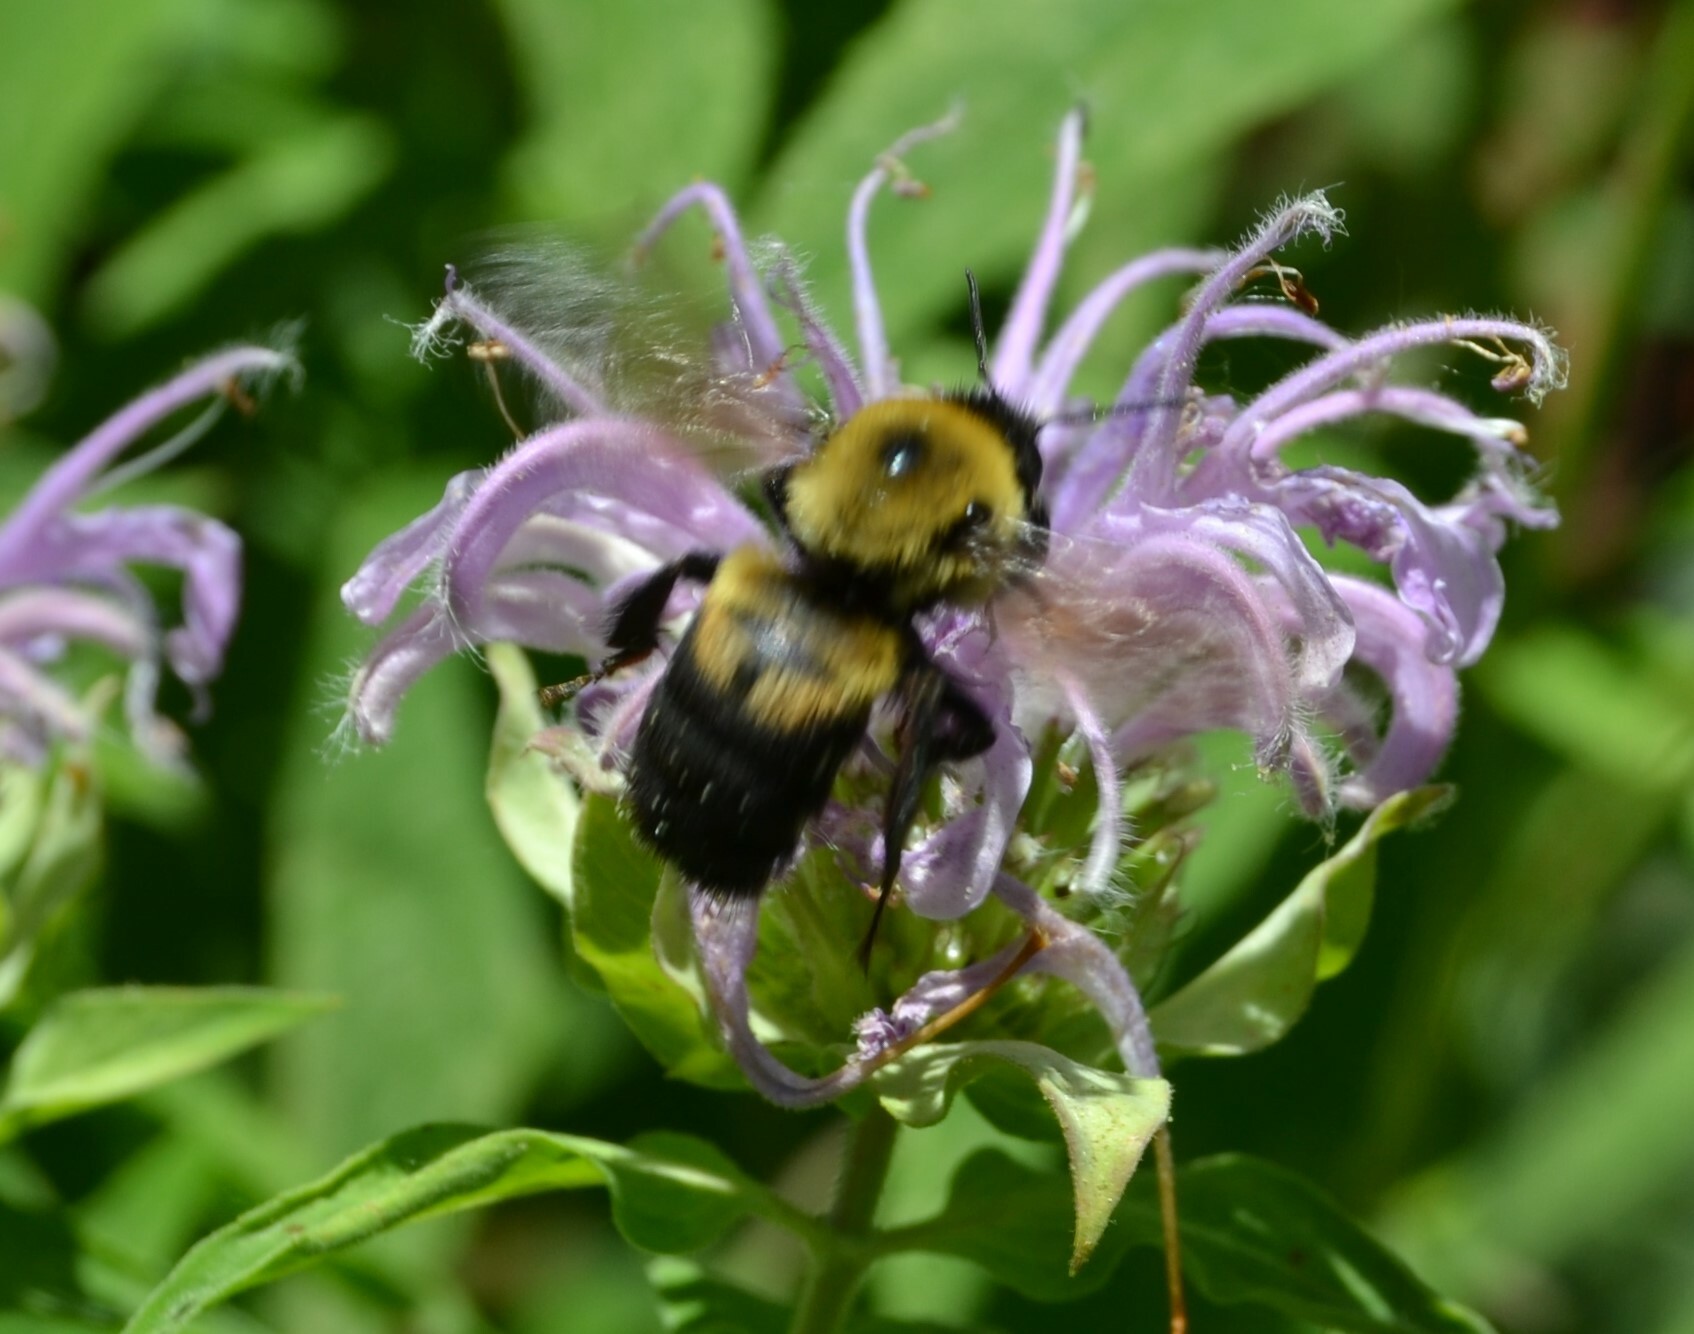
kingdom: Animalia
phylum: Arthropoda
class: Insecta
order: Hymenoptera
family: Apidae
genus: Bombus
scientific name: Bombus griseocollis
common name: Brown-belted bumble bee
